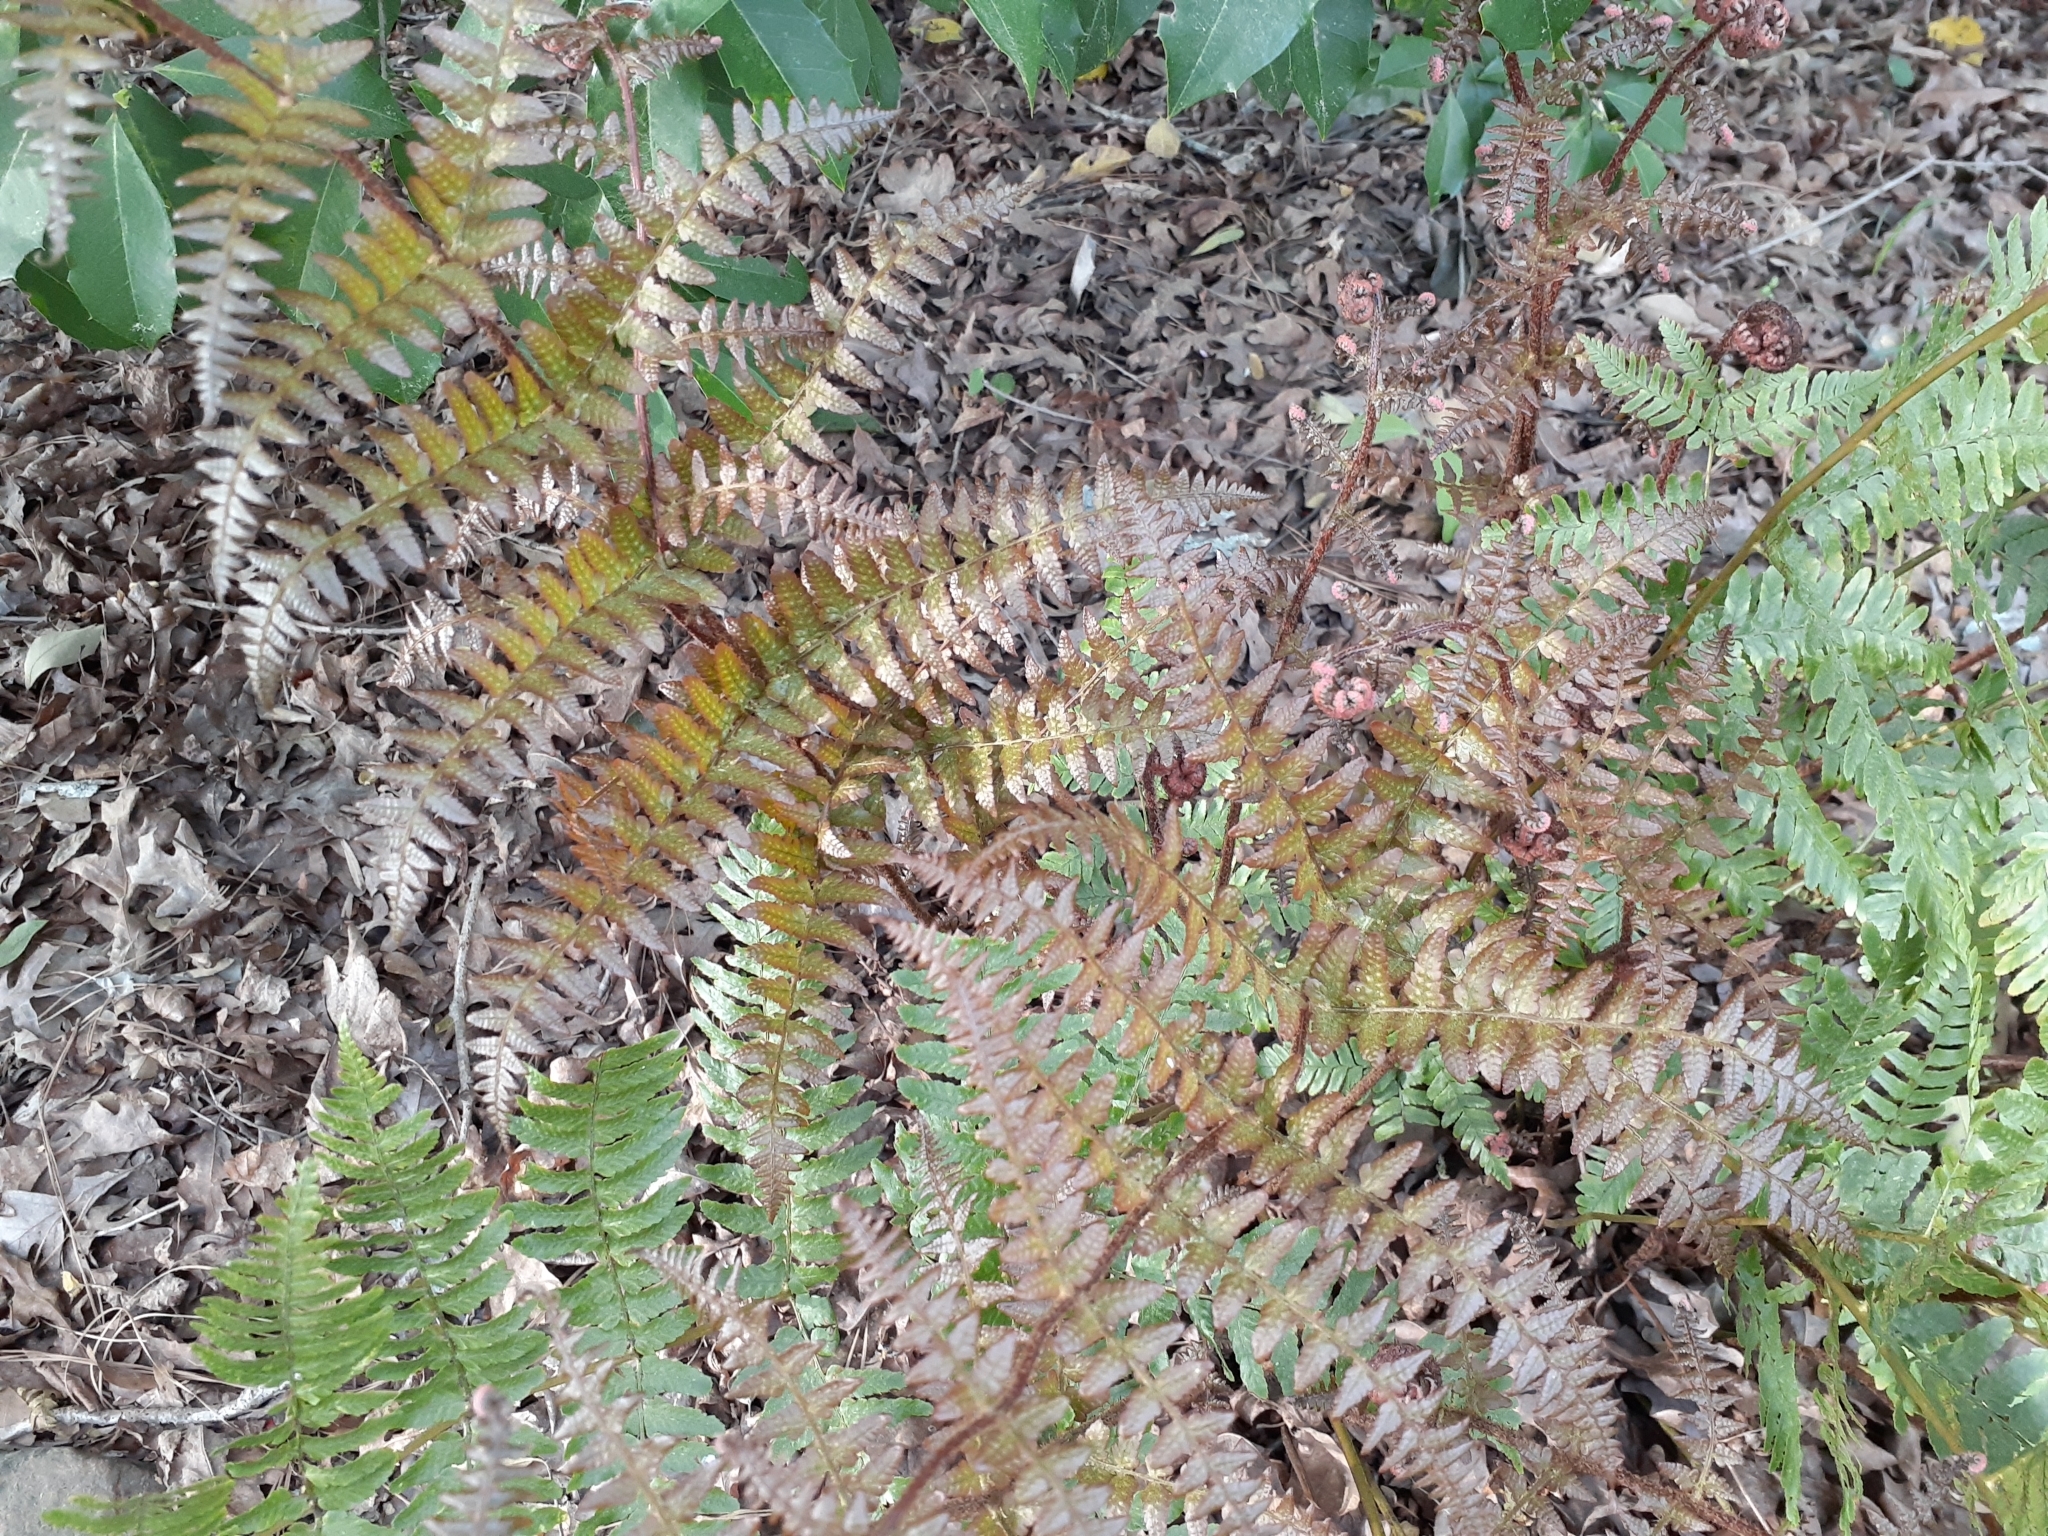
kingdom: Plantae
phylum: Tracheophyta
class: Polypodiopsida
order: Polypodiales
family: Dryopteridaceae
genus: Dryopteris
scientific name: Dryopteris erythrosora
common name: Autumn fern
